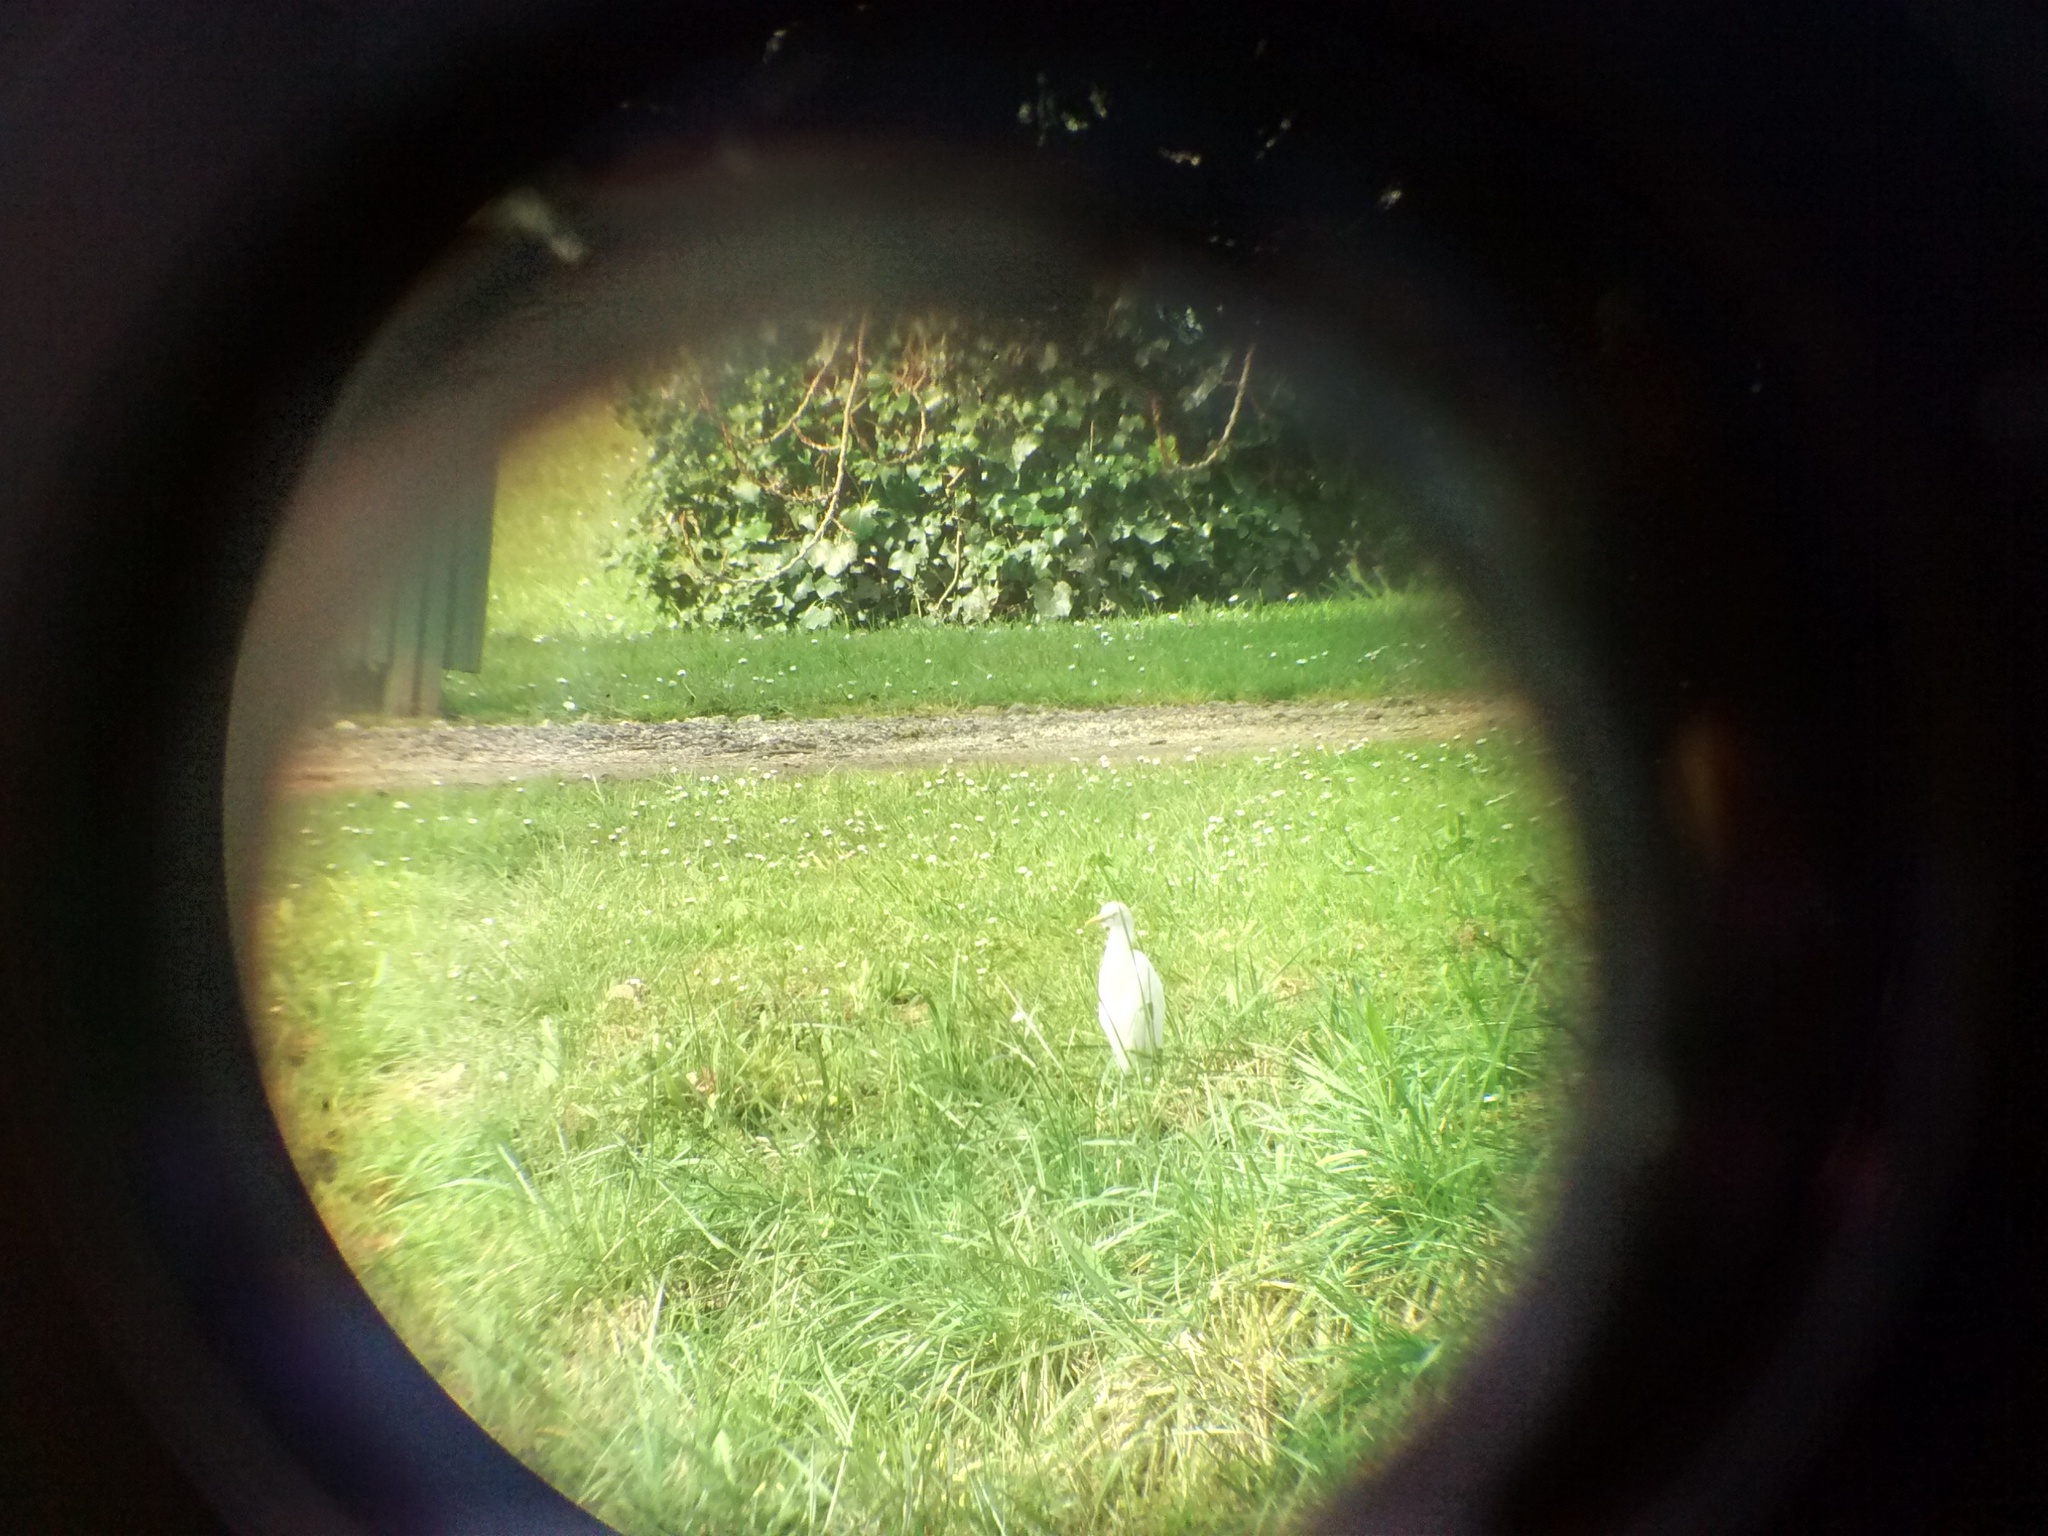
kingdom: Animalia
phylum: Chordata
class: Aves
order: Pelecaniformes
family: Ardeidae
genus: Bubulcus
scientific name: Bubulcus ibis
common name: Cattle egret
